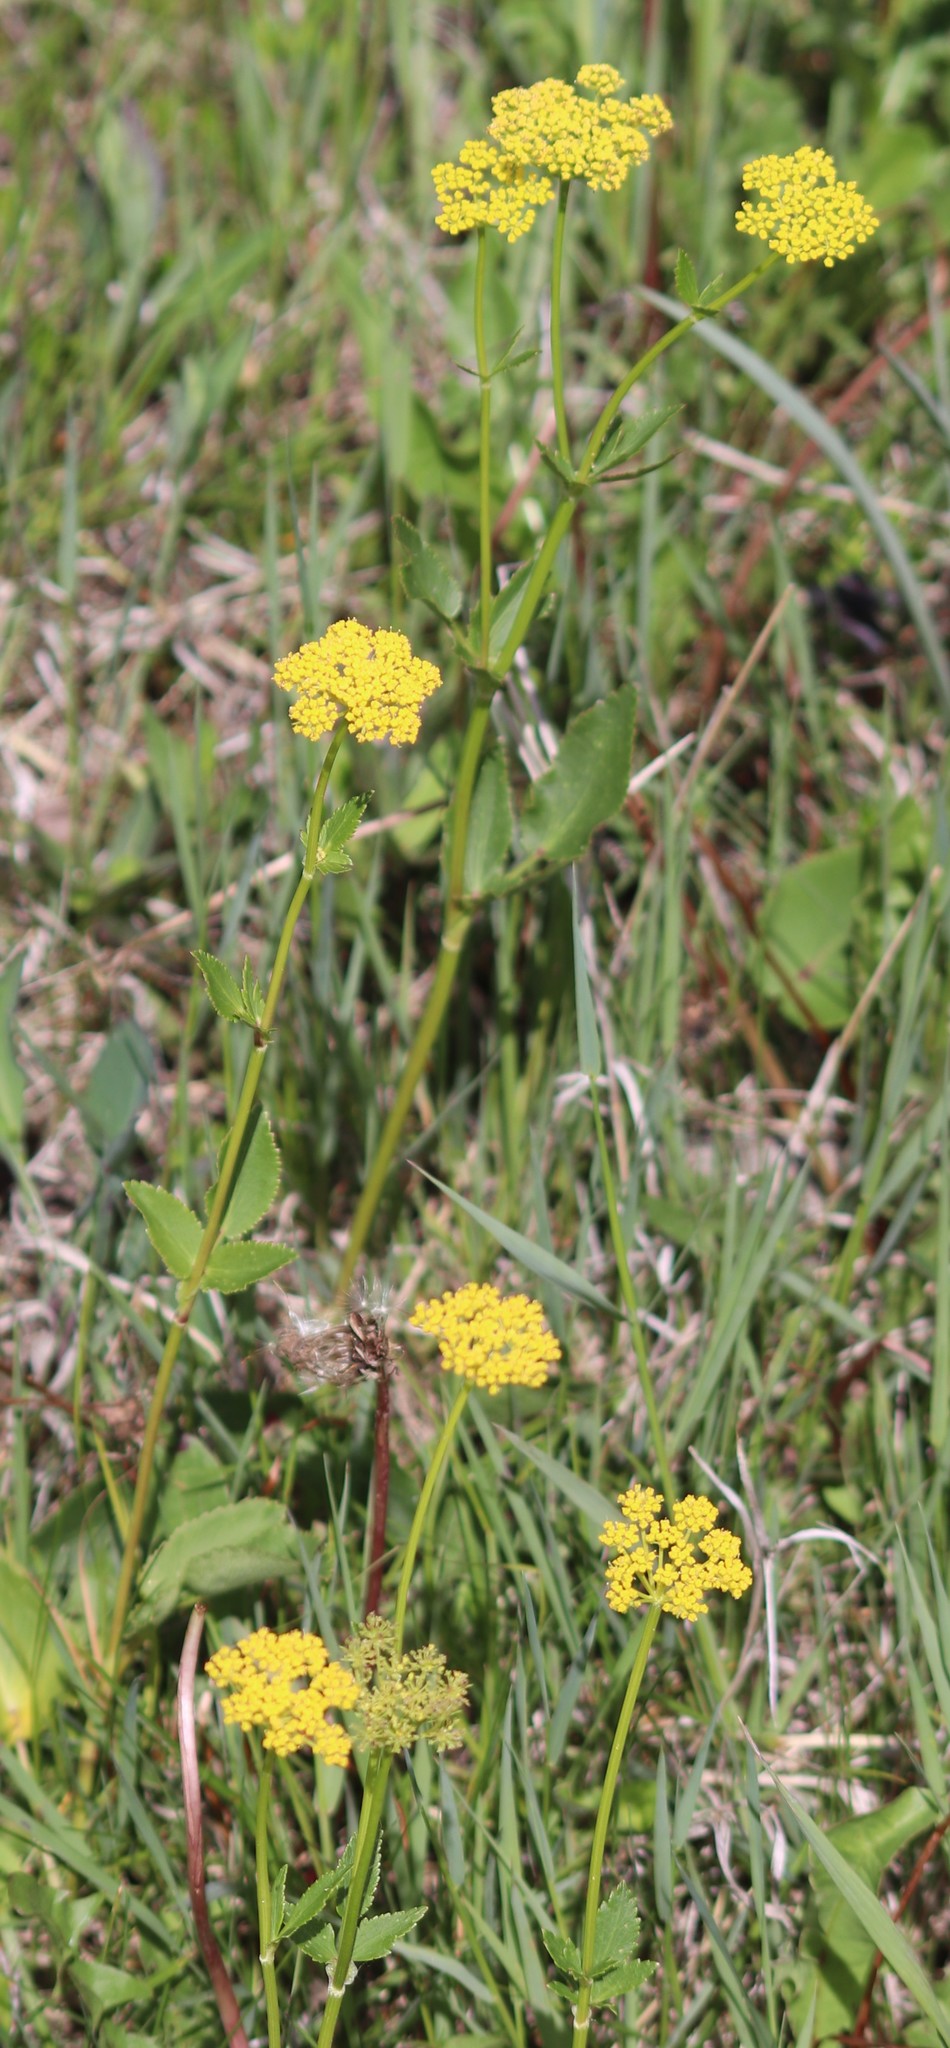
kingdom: Plantae
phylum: Tracheophyta
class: Magnoliopsida
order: Apiales
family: Apiaceae
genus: Zizia
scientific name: Zizia aptera
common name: Heart-leaved alexanders
